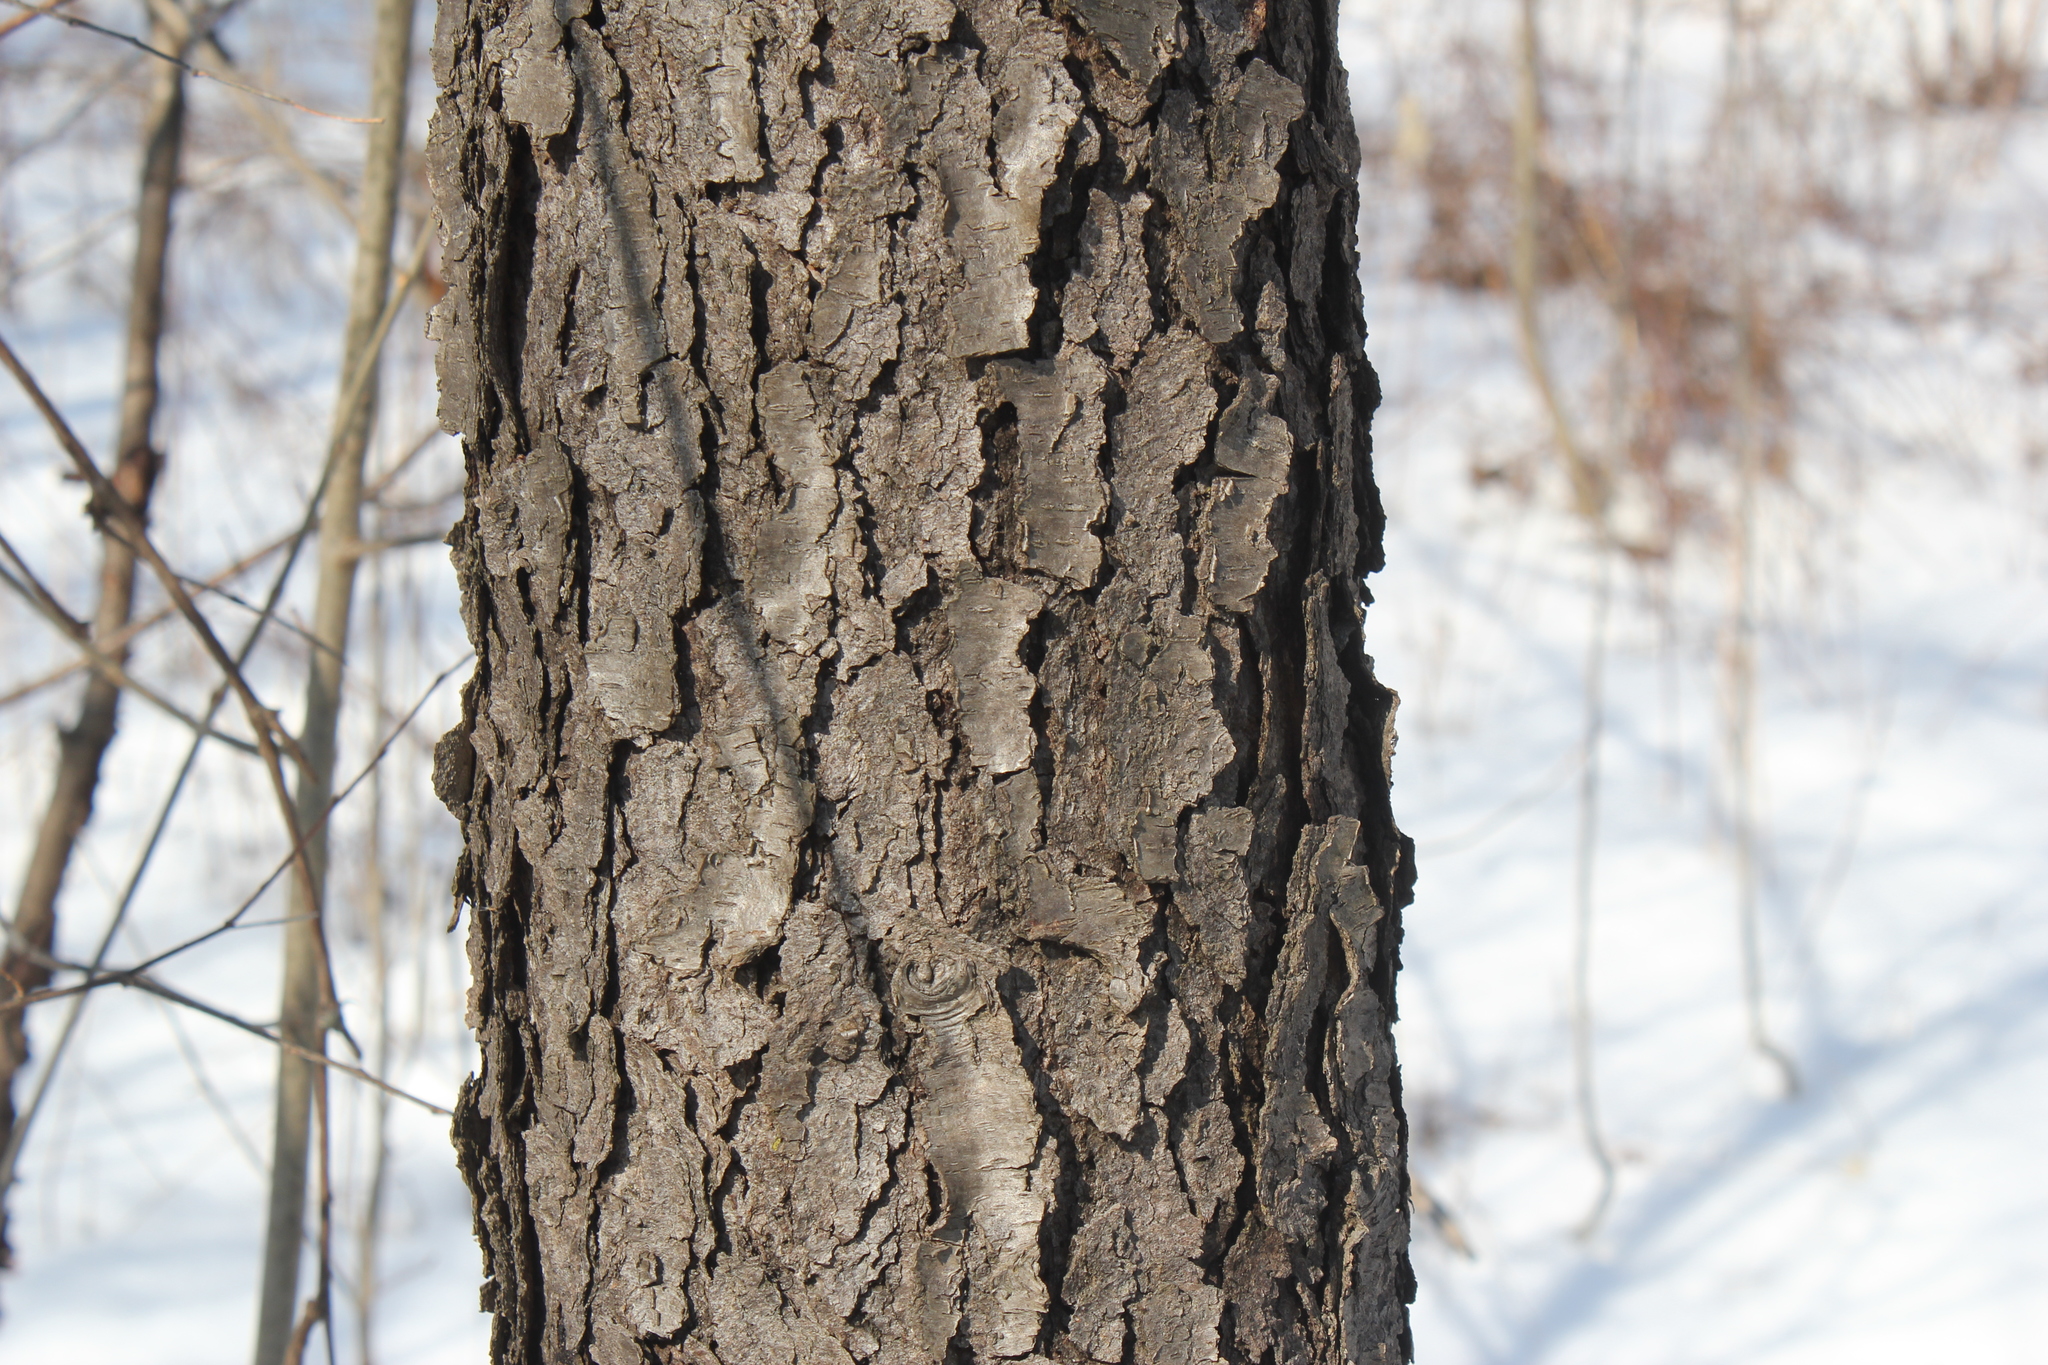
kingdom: Plantae
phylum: Tracheophyta
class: Magnoliopsida
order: Rosales
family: Rosaceae
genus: Prunus
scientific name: Prunus serotina
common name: Black cherry
